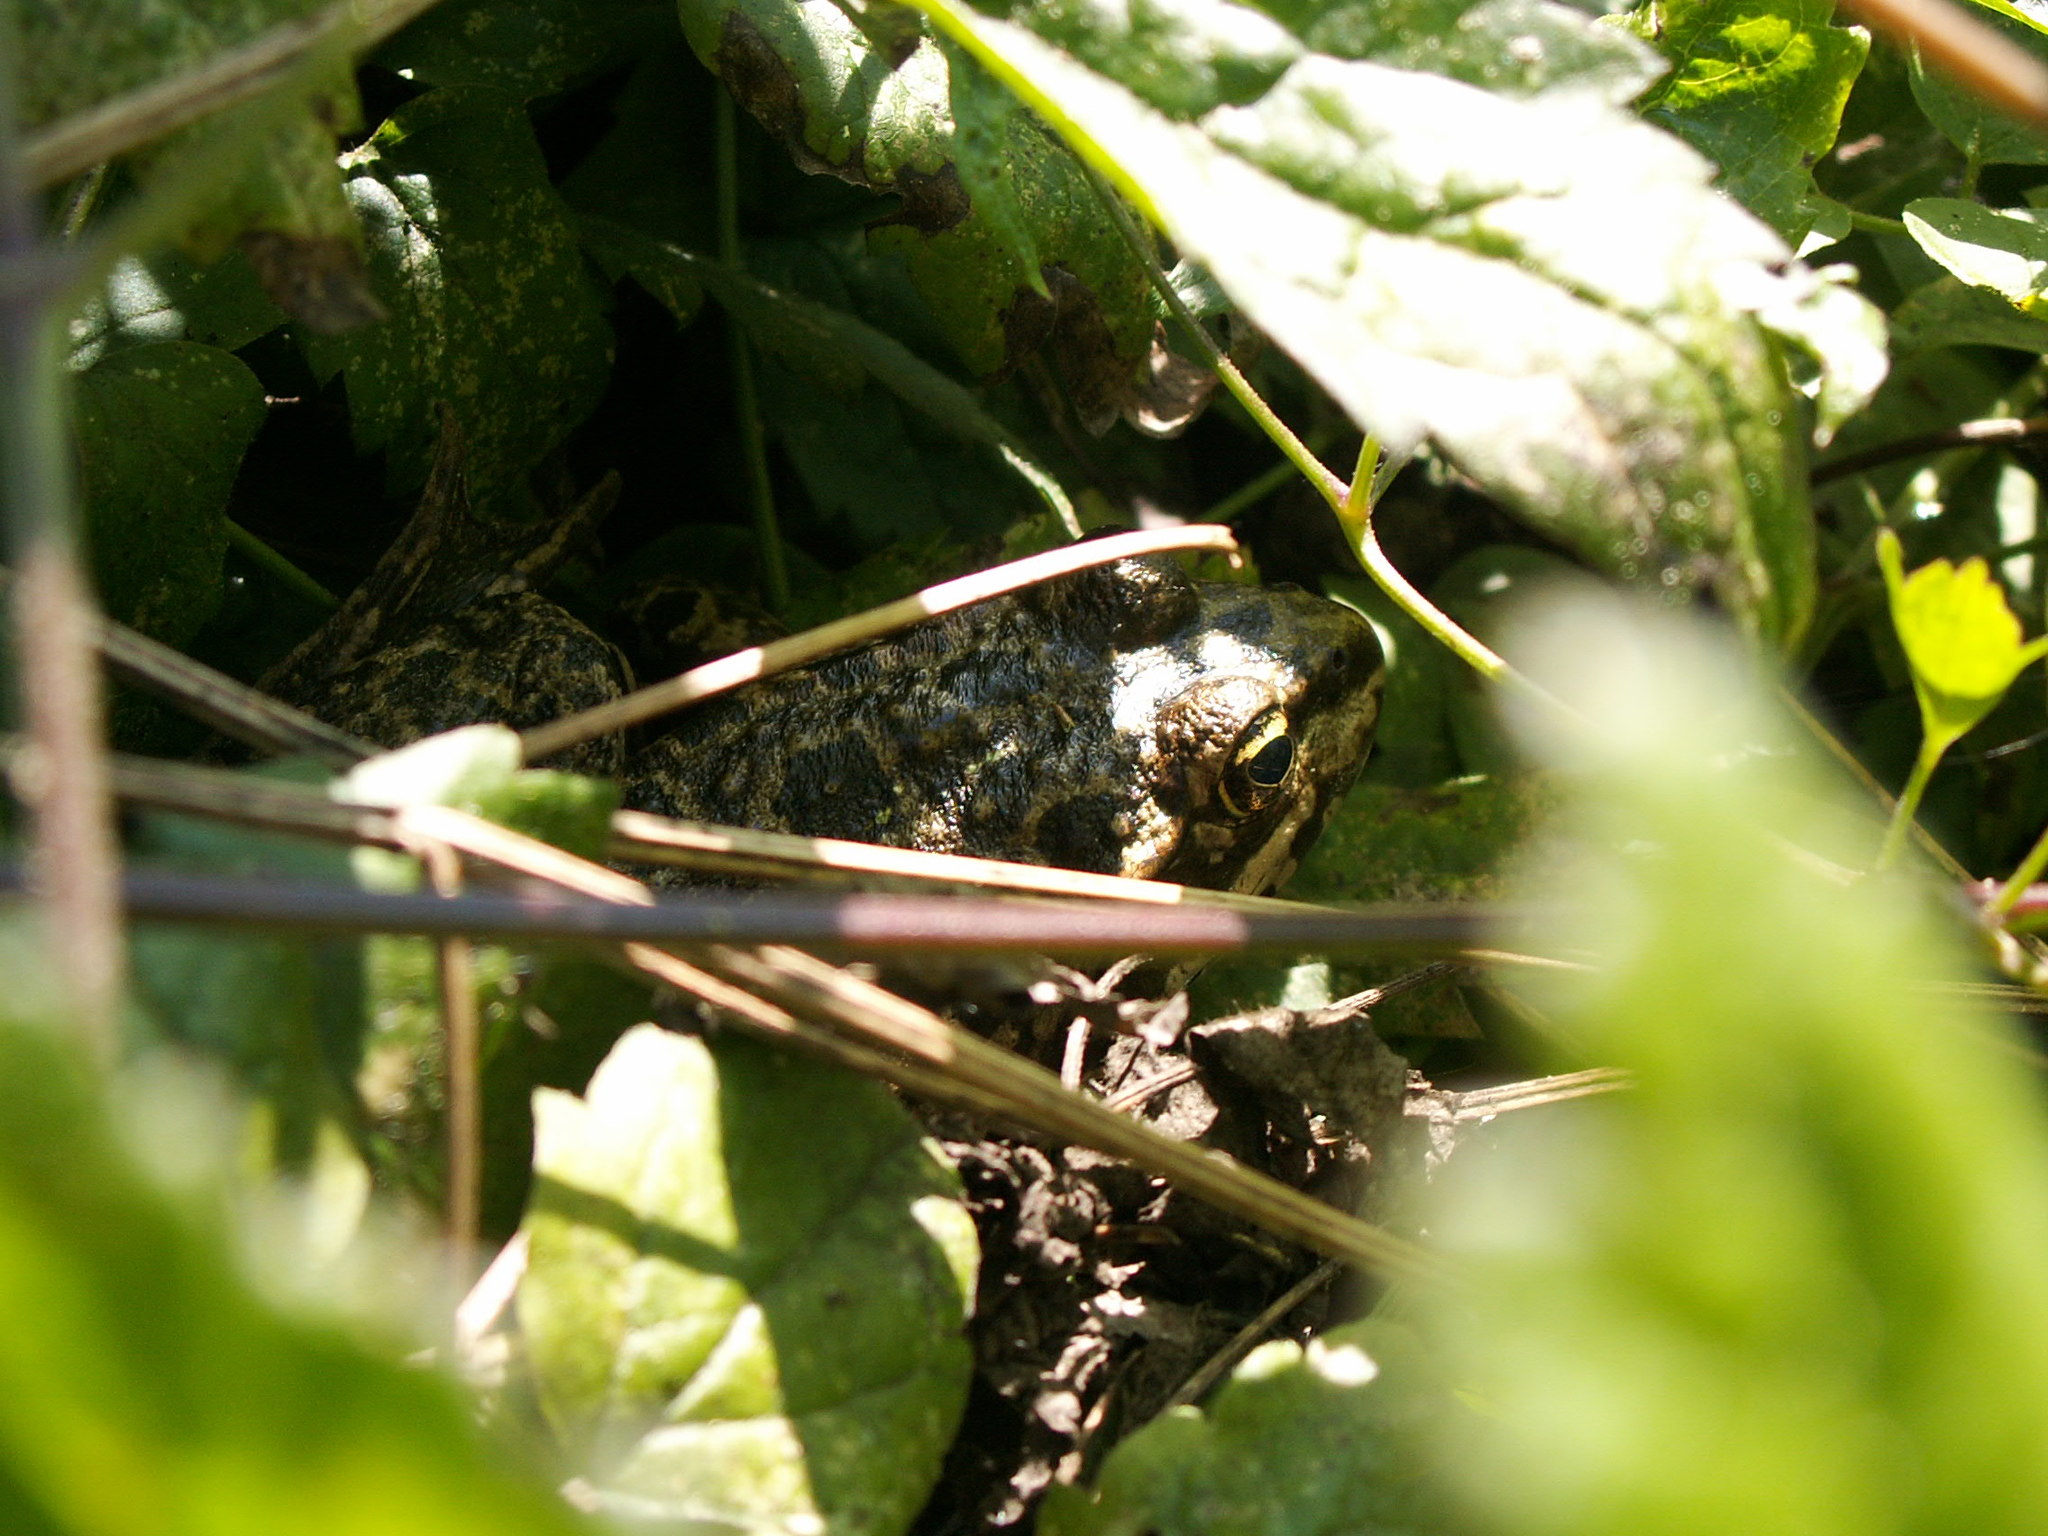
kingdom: Animalia
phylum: Chordata
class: Amphibia
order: Anura
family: Ranidae
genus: Pelophylax
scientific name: Pelophylax
